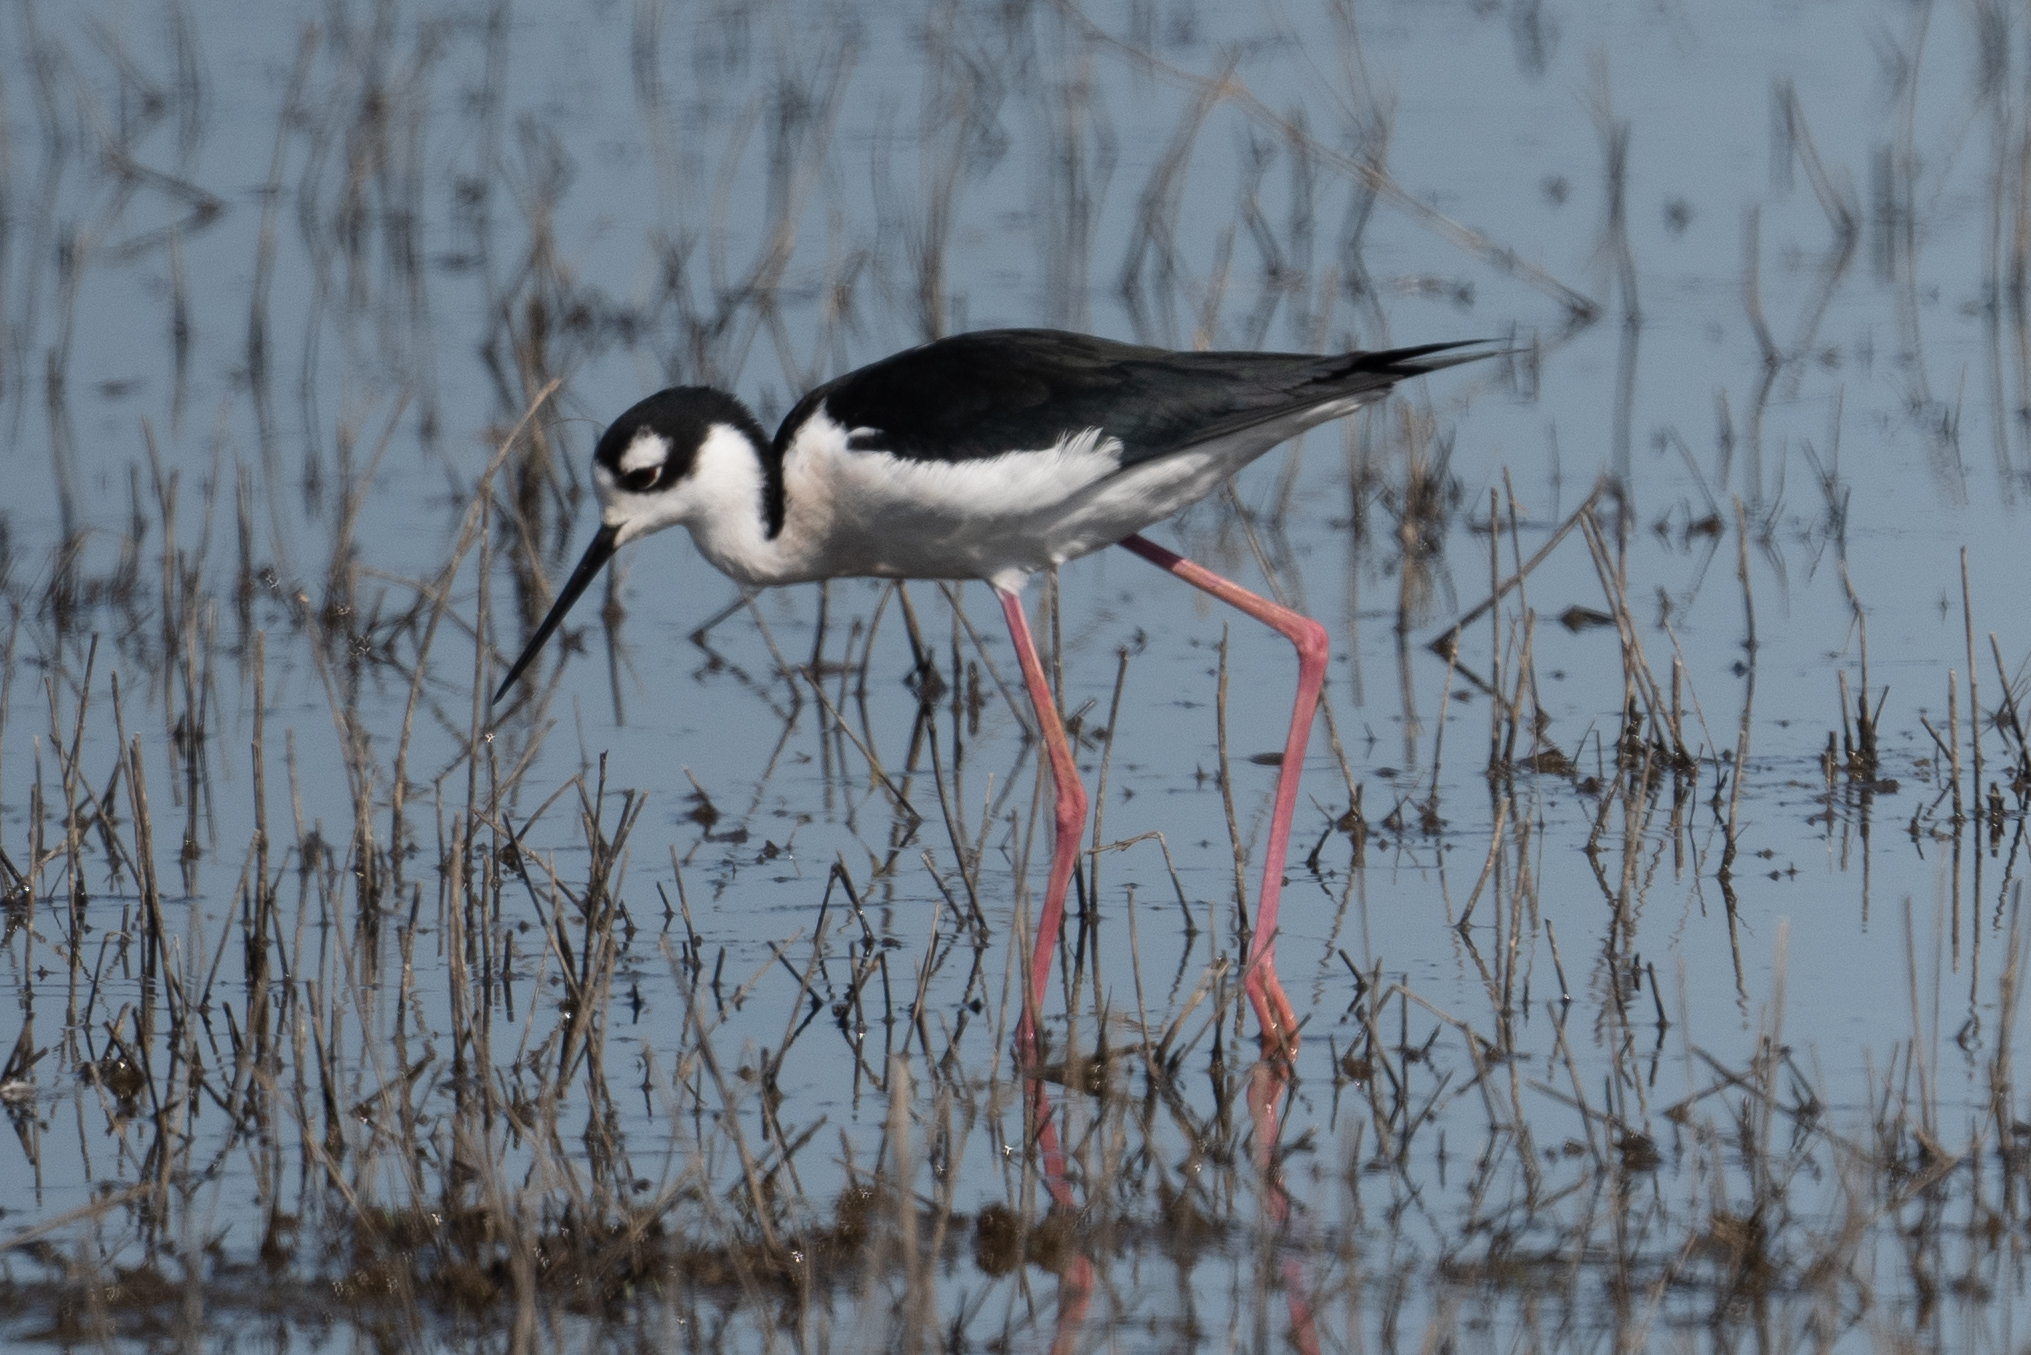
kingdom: Animalia
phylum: Chordata
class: Aves
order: Charadriiformes
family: Recurvirostridae
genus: Himantopus
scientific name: Himantopus mexicanus
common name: Black-necked stilt
